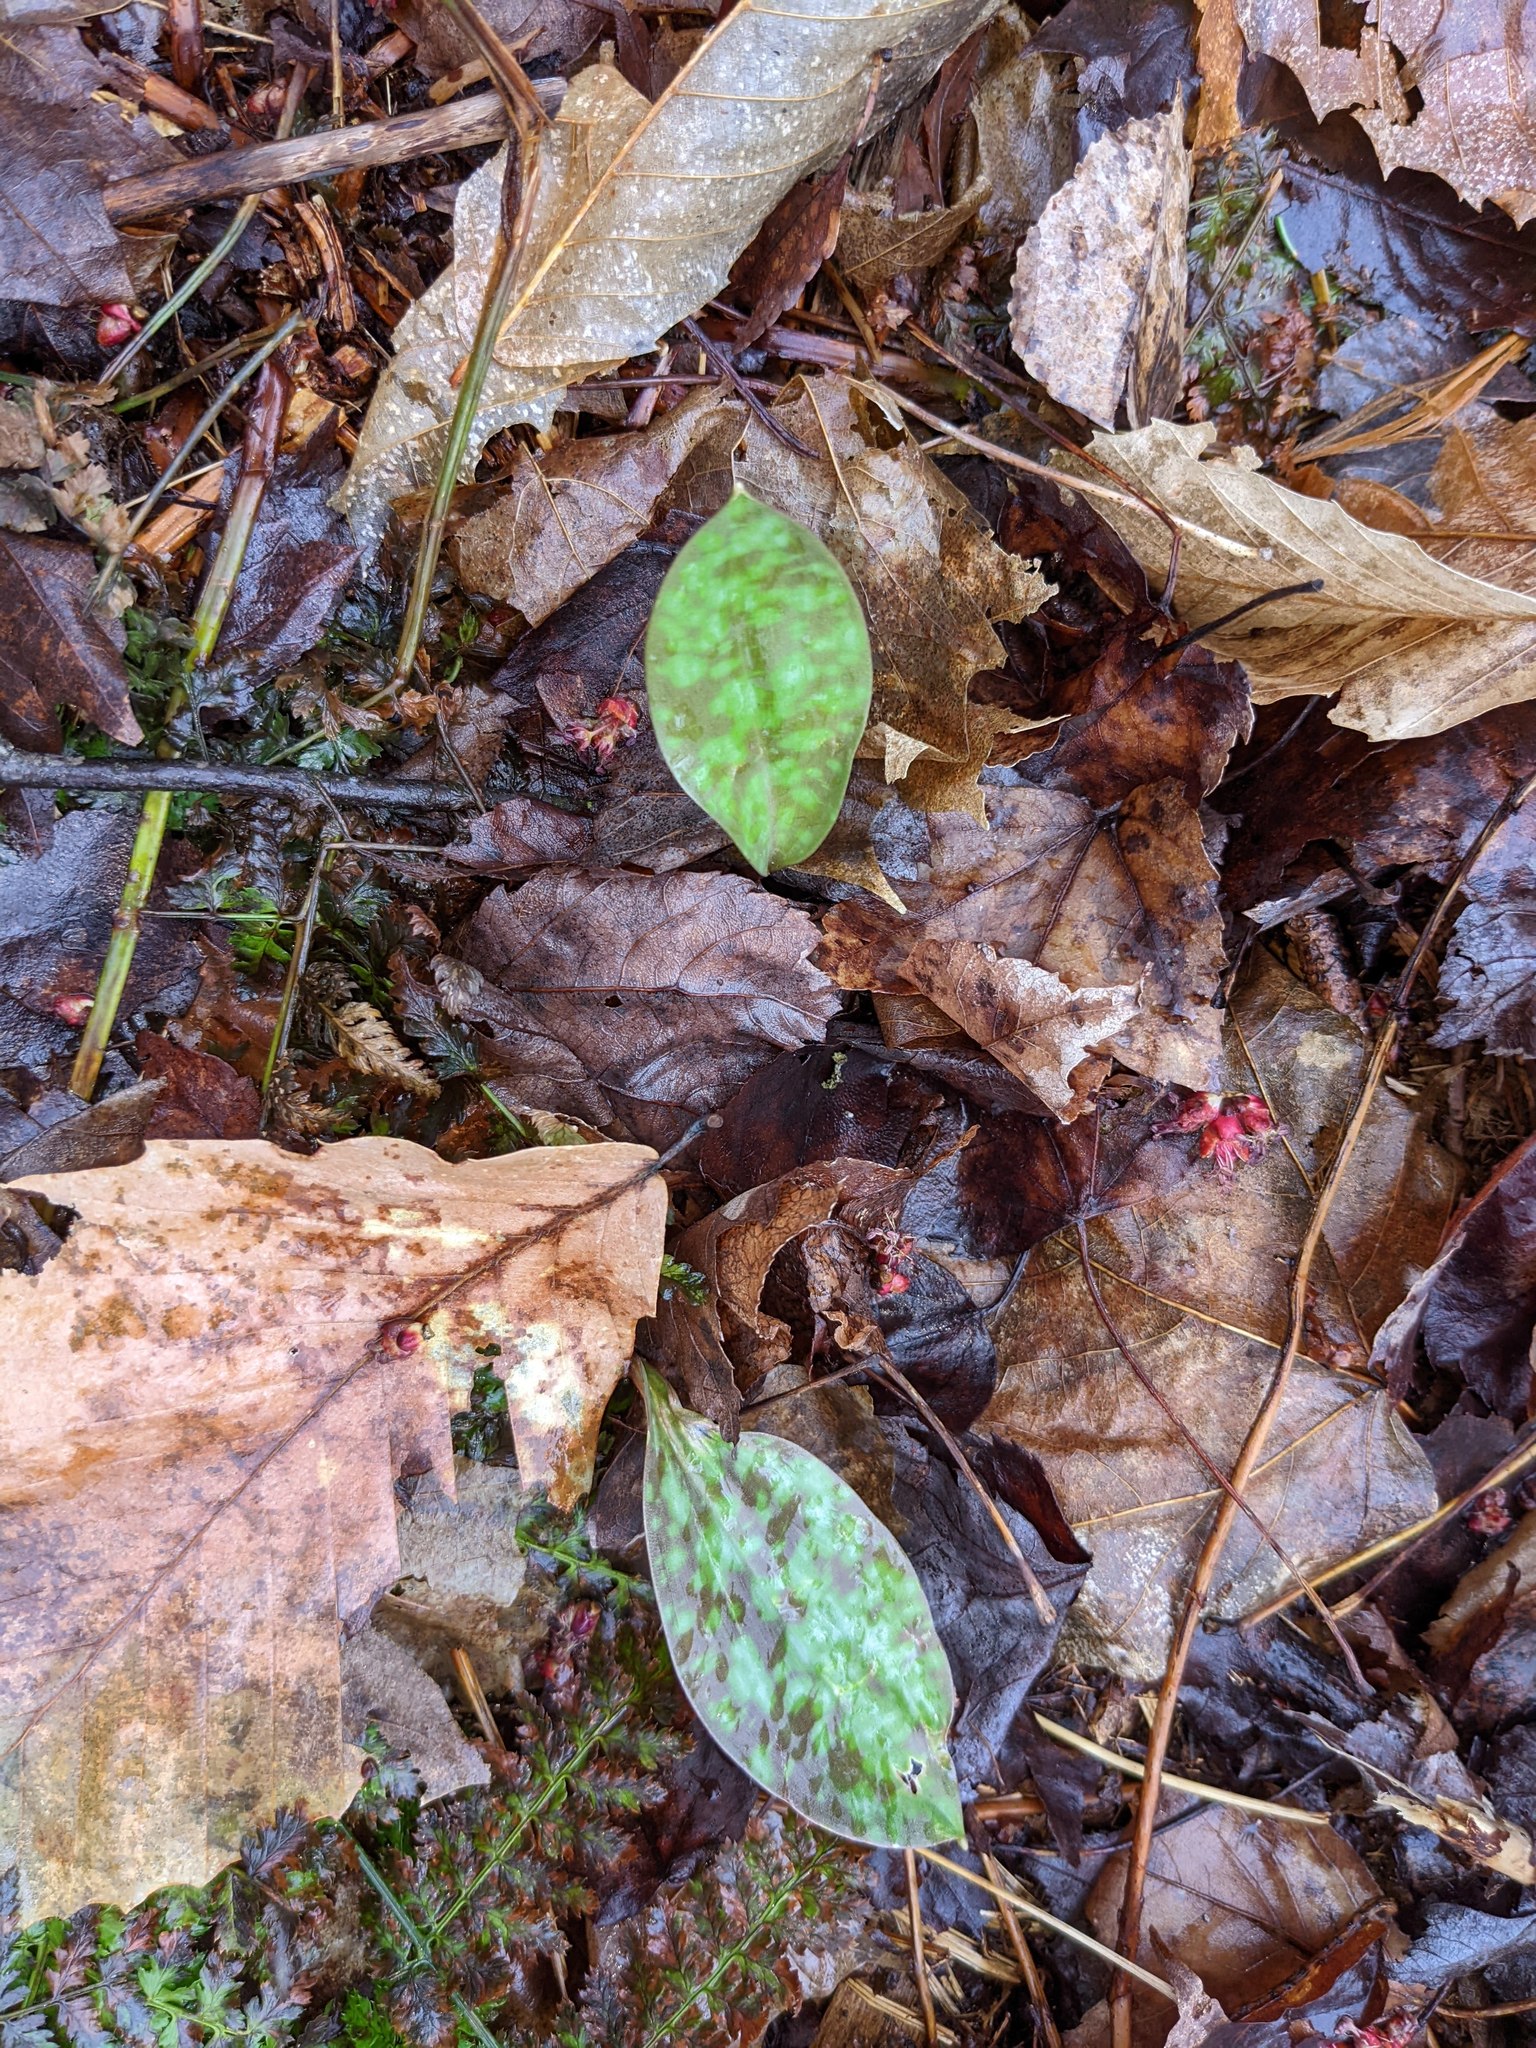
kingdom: Plantae
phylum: Tracheophyta
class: Liliopsida
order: Liliales
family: Liliaceae
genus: Erythronium
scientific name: Erythronium americanum
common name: Yellow adder's-tongue
